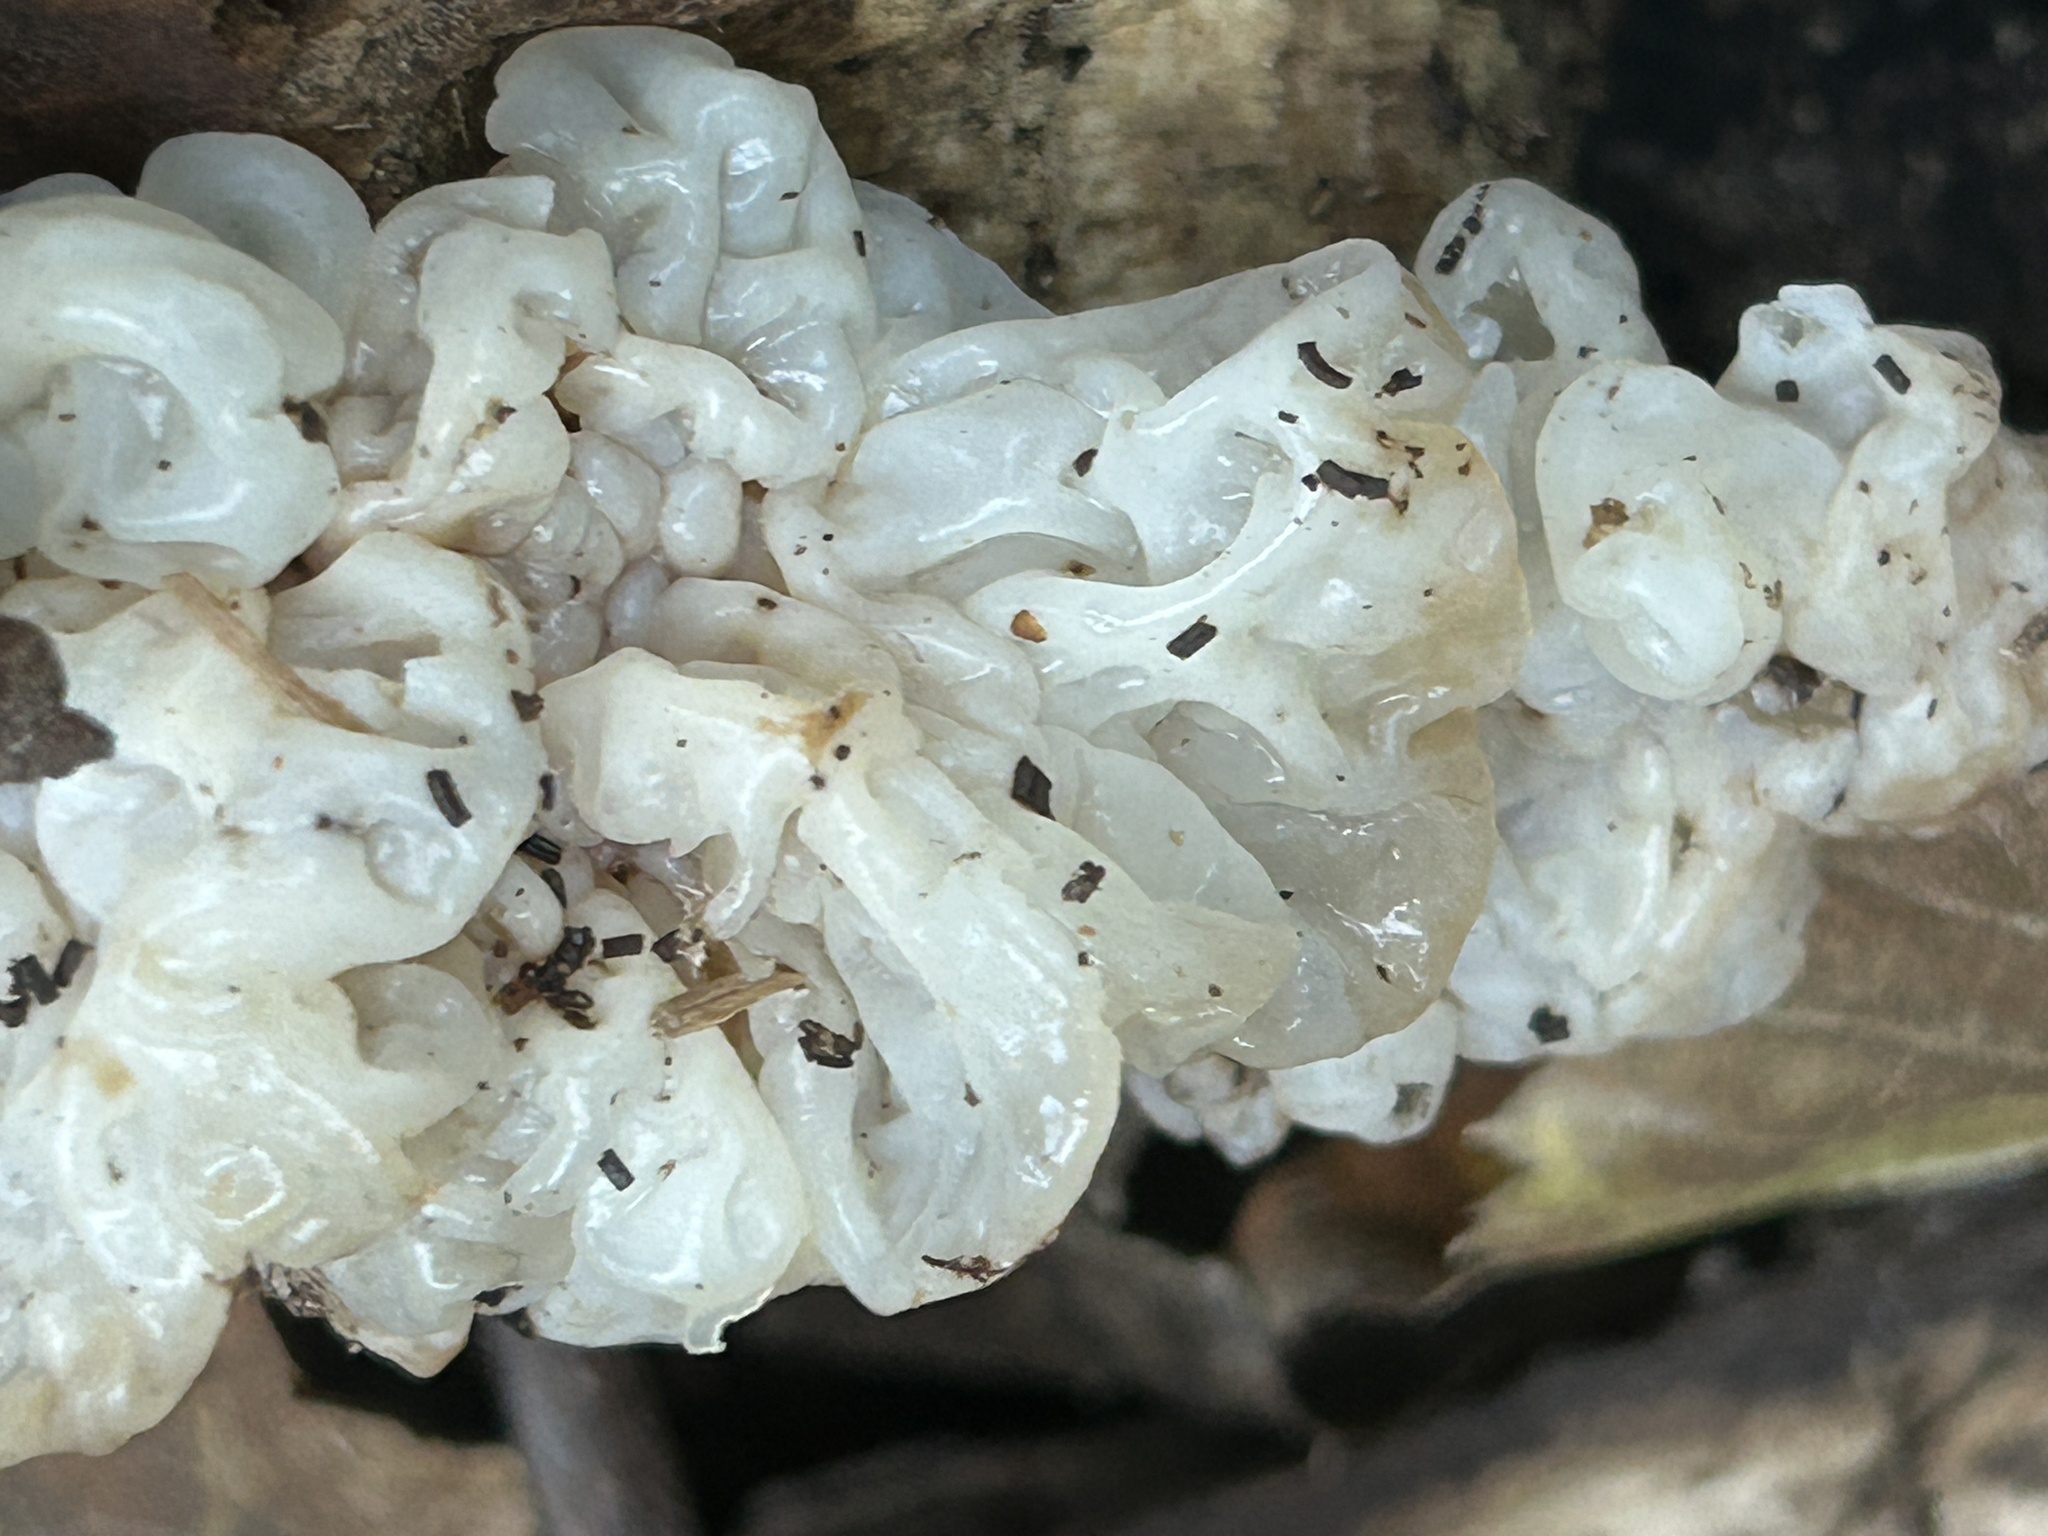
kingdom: Fungi
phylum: Basidiomycota
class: Agaricomycetes
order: Auriculariales
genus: Ductifera
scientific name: Ductifera pululahuana
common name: White jelly fungus
